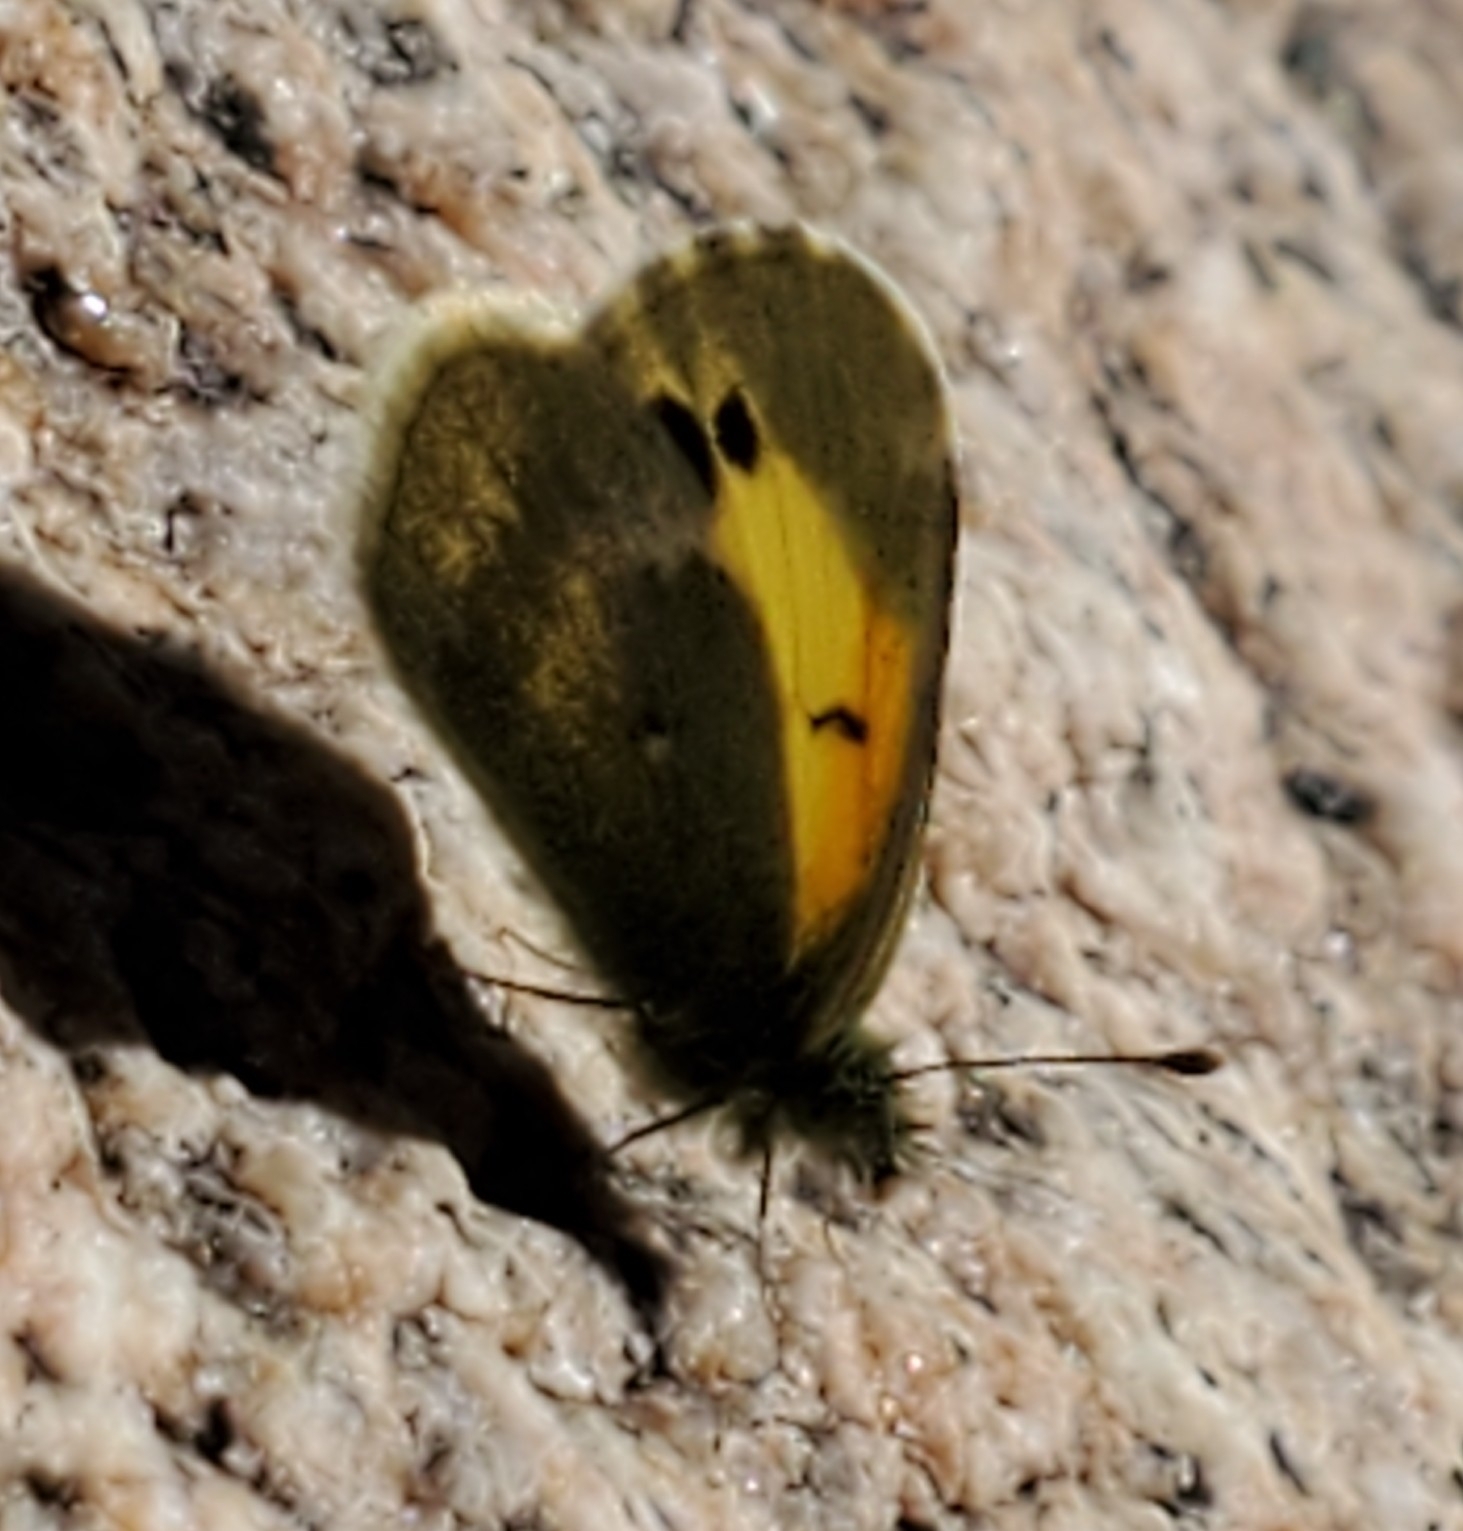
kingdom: Animalia
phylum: Arthropoda
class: Insecta
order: Lepidoptera
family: Pieridae
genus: Nathalis
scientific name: Nathalis iole
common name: Dainty sulphur
